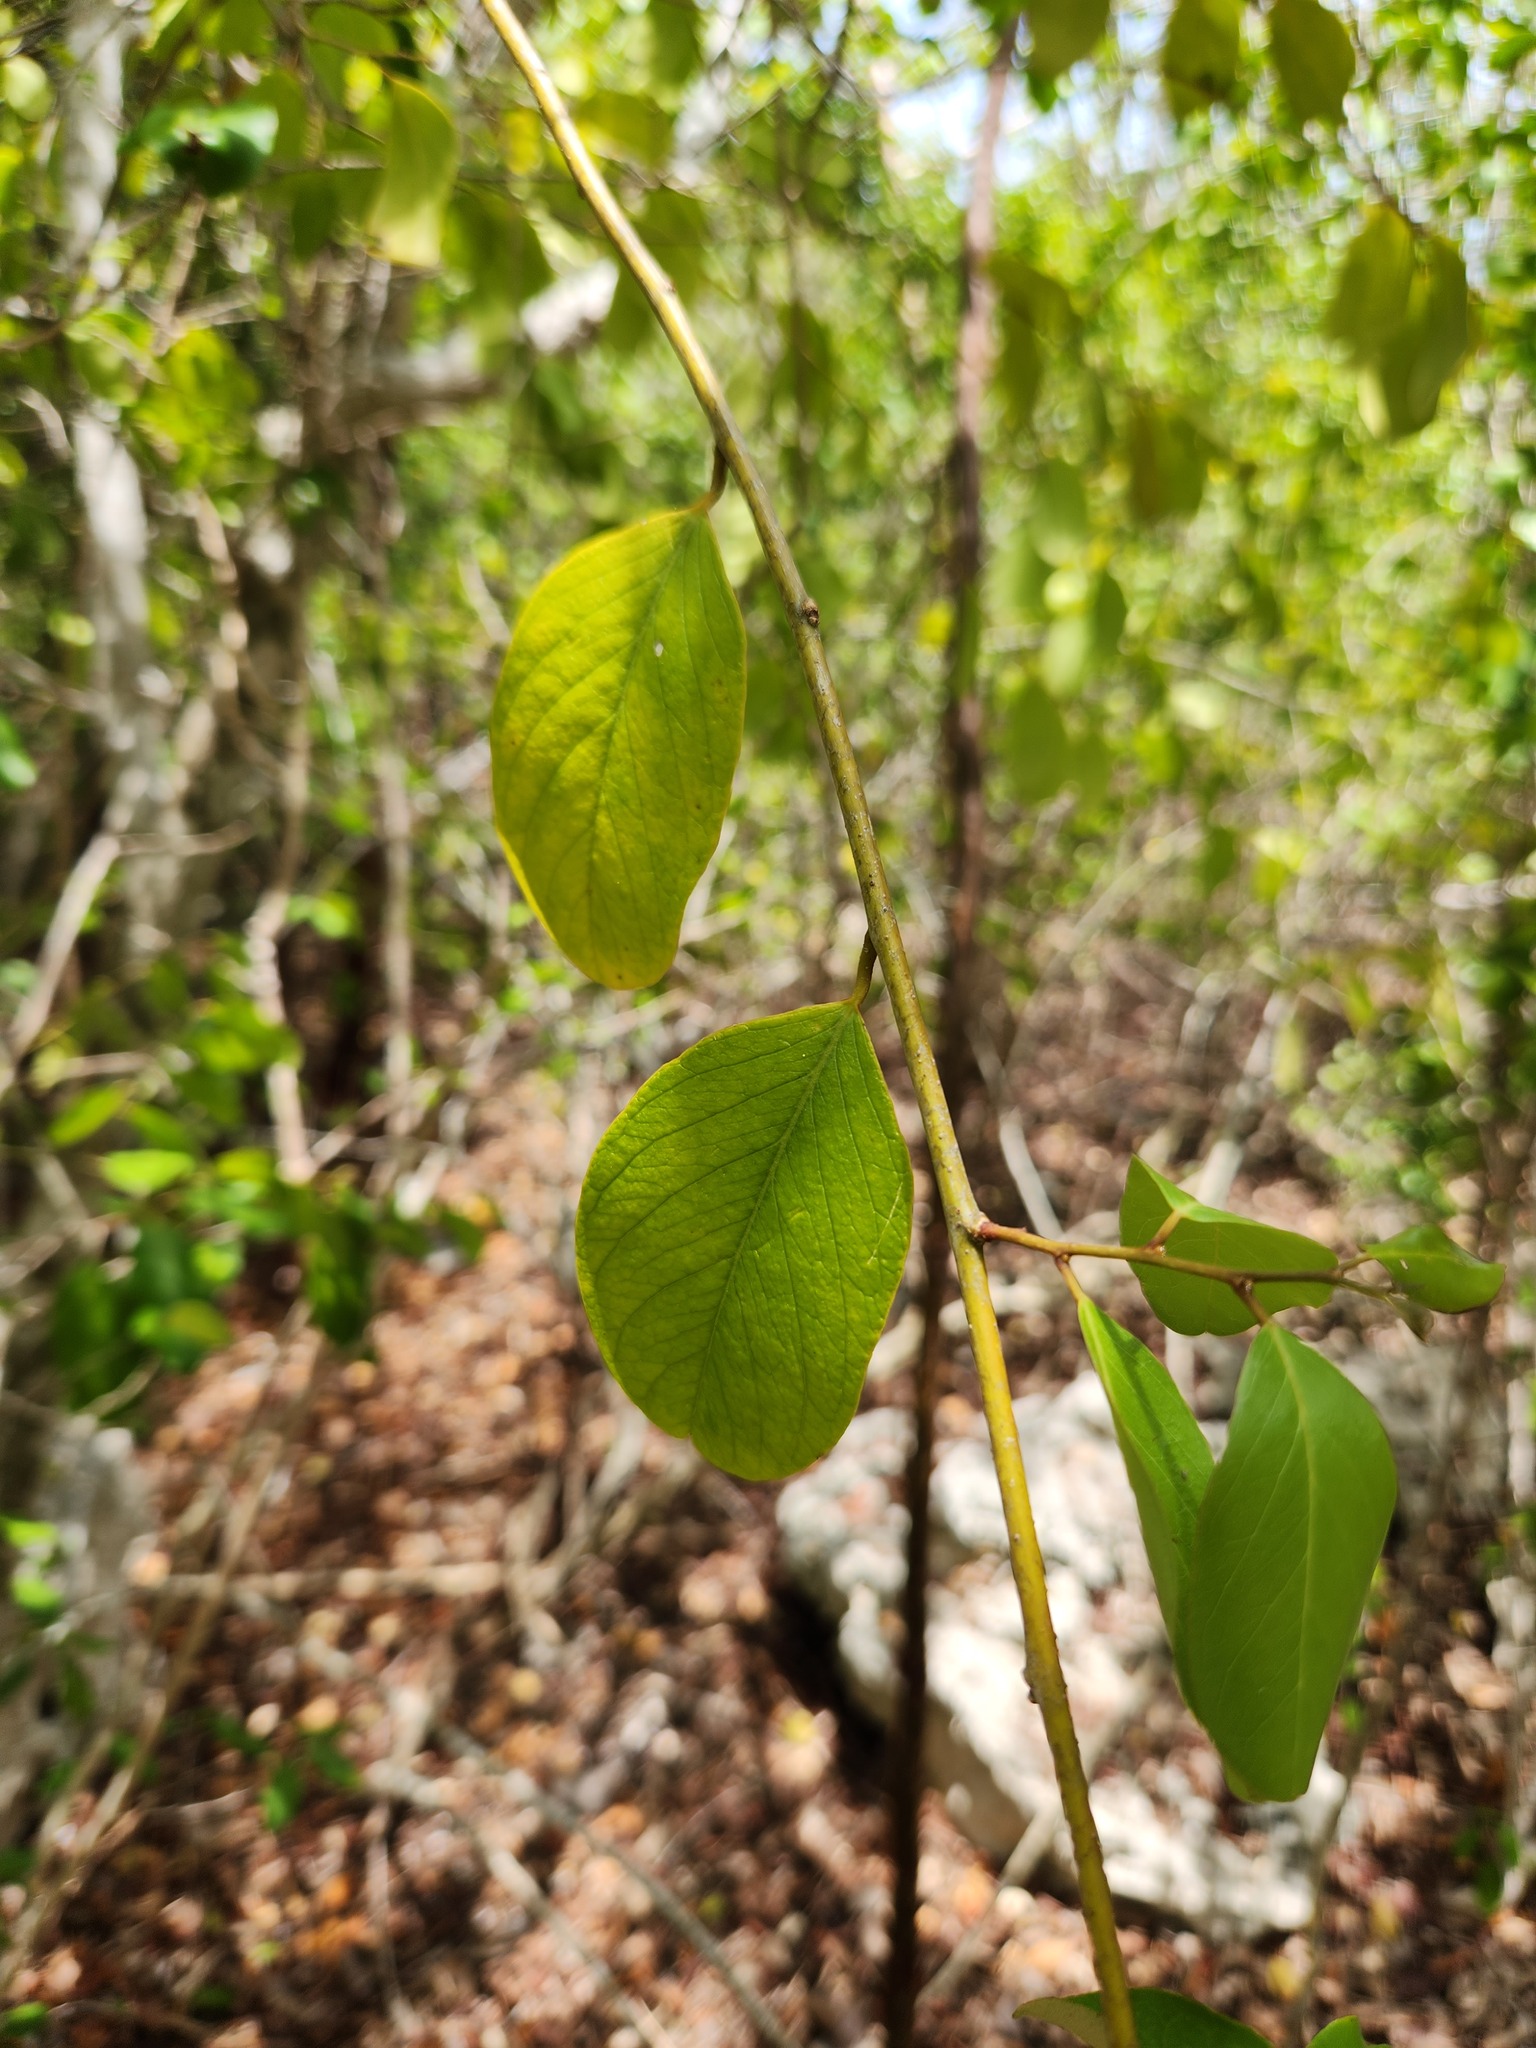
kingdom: Plantae
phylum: Tracheophyta
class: Magnoliopsida
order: Brassicales
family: Capparaceae
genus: Cynophalla
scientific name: Cynophalla flexuosa
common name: Capertree
